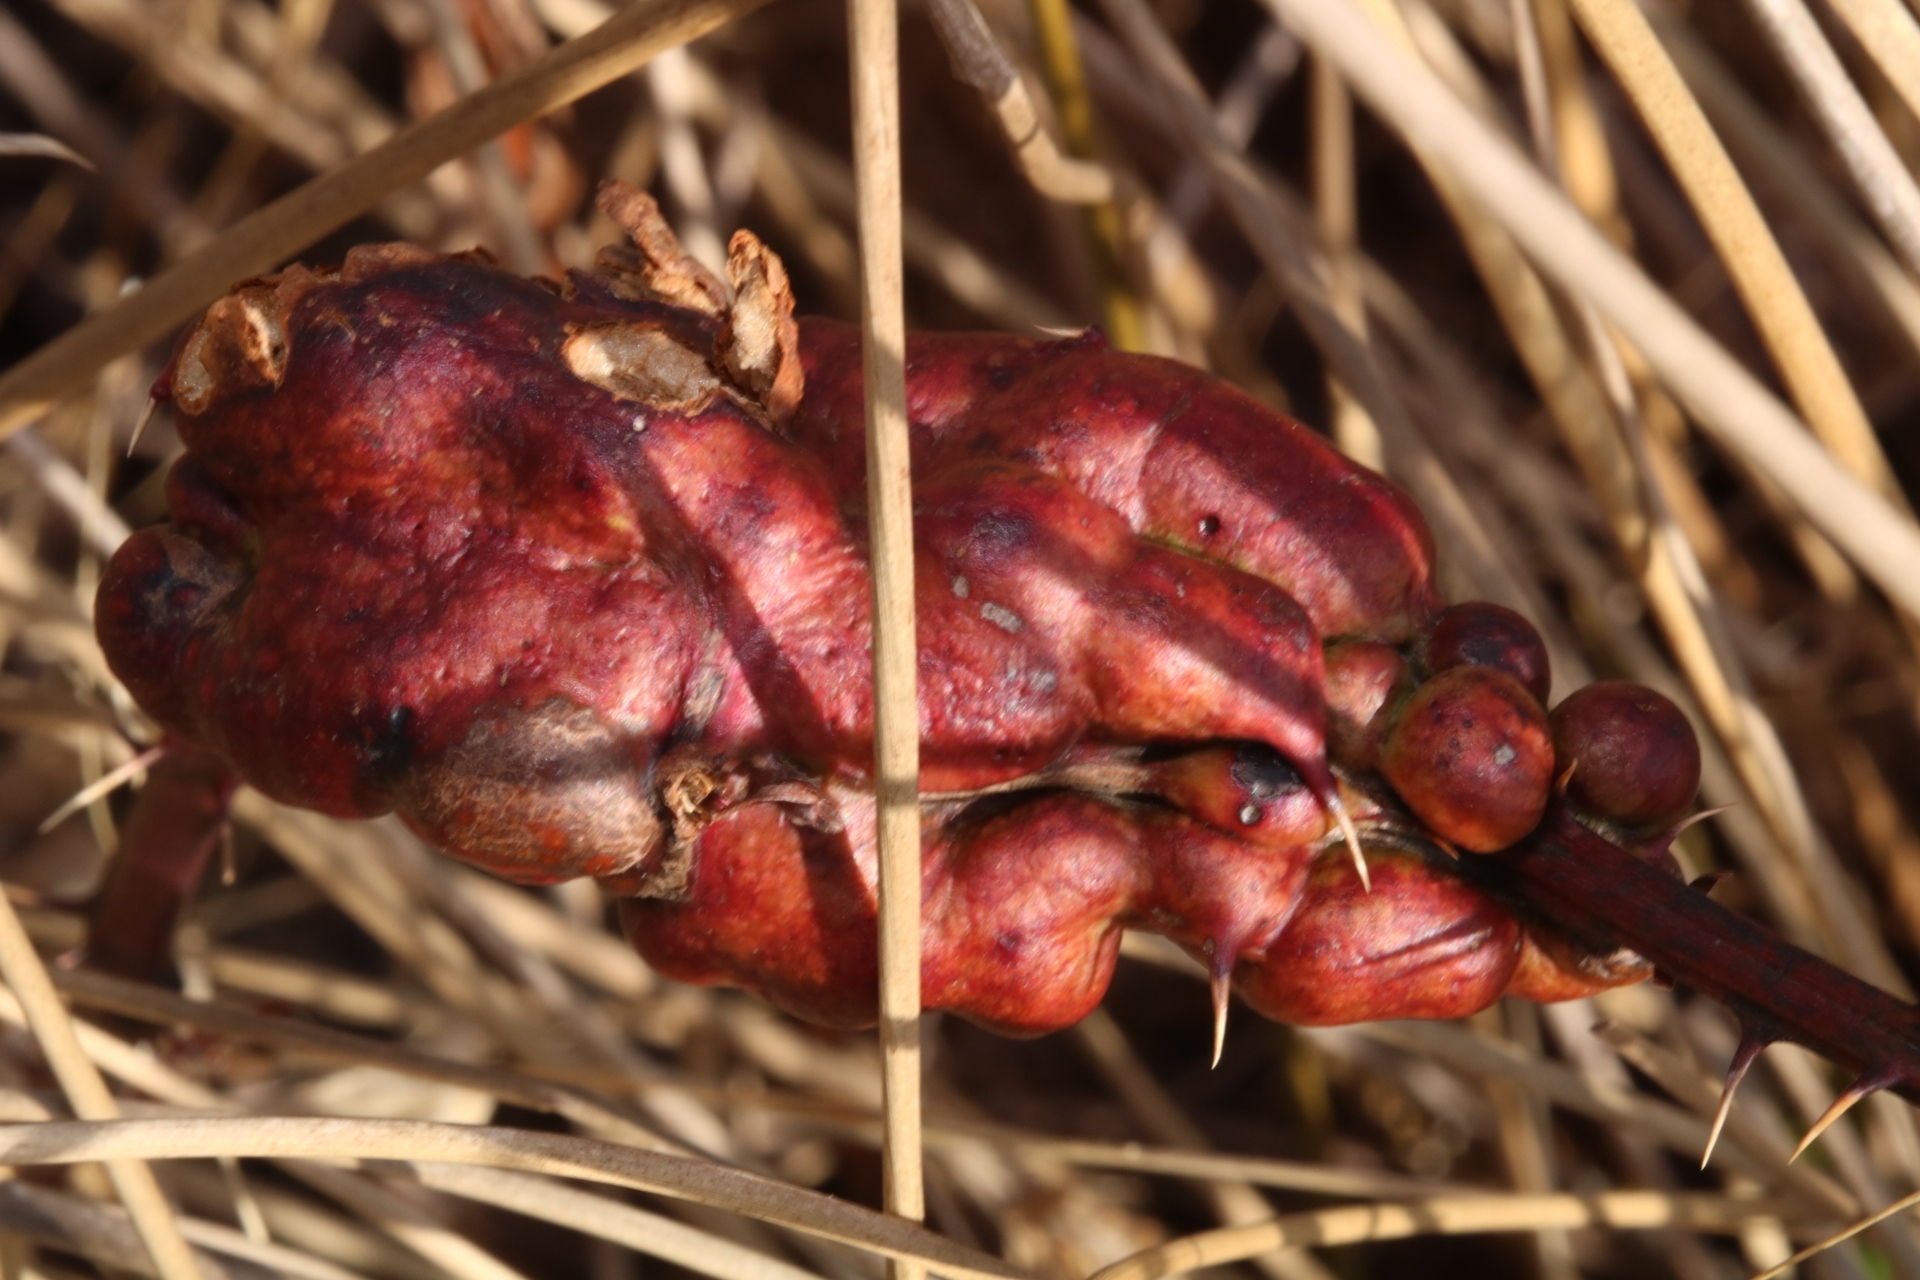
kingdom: Animalia
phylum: Arthropoda
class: Insecta
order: Hymenoptera
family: Cynipidae
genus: Diastrophus
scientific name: Diastrophus
